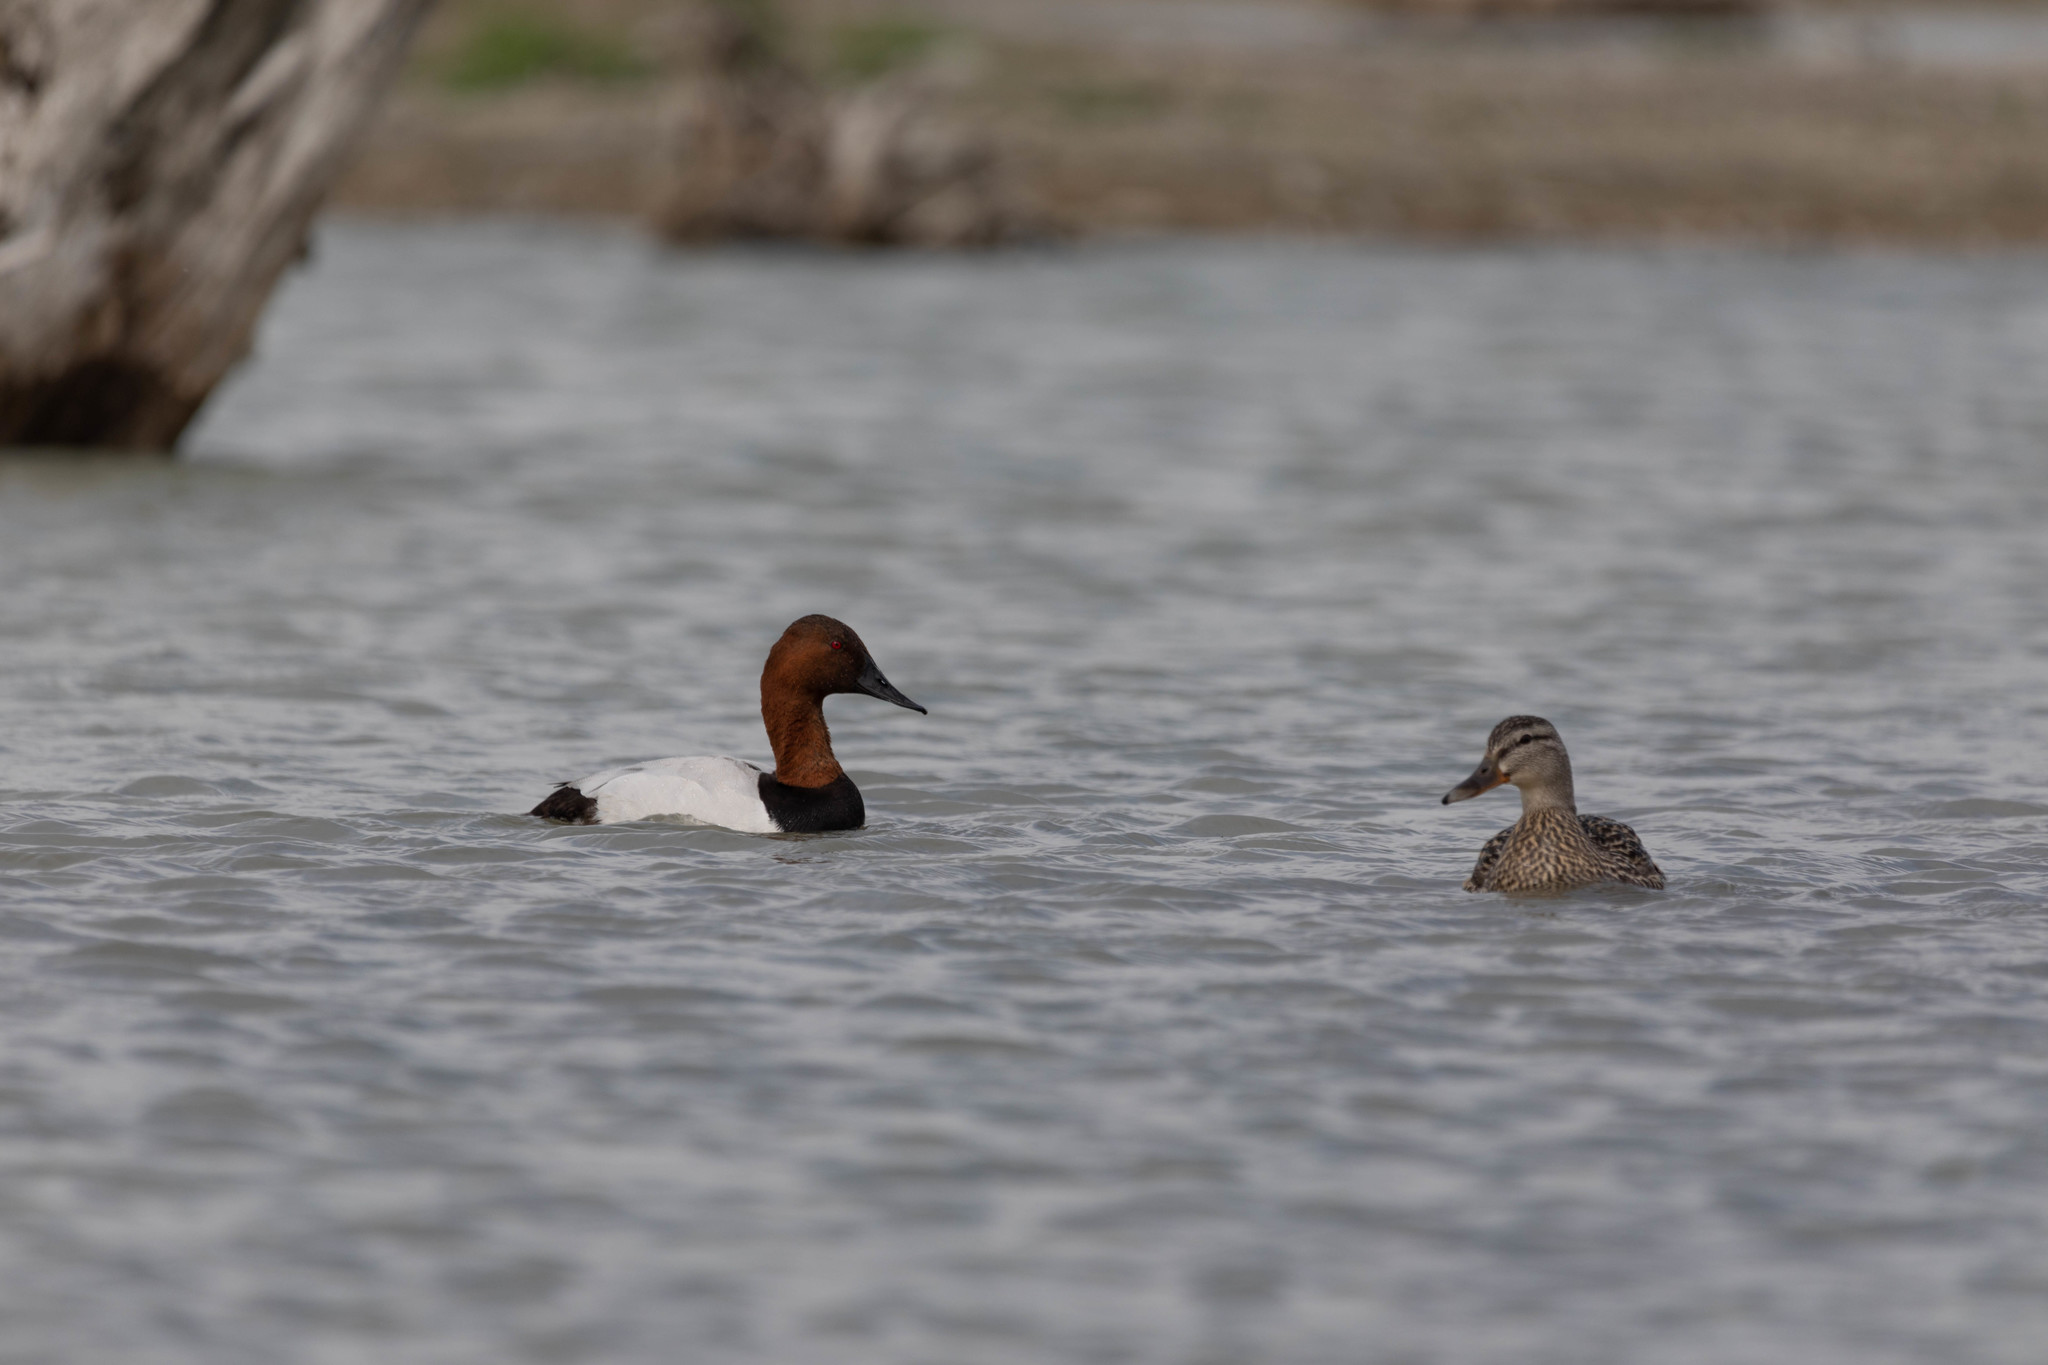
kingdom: Animalia
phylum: Chordata
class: Aves
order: Anseriformes
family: Anatidae
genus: Aythya
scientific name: Aythya valisineria
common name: Canvasback
